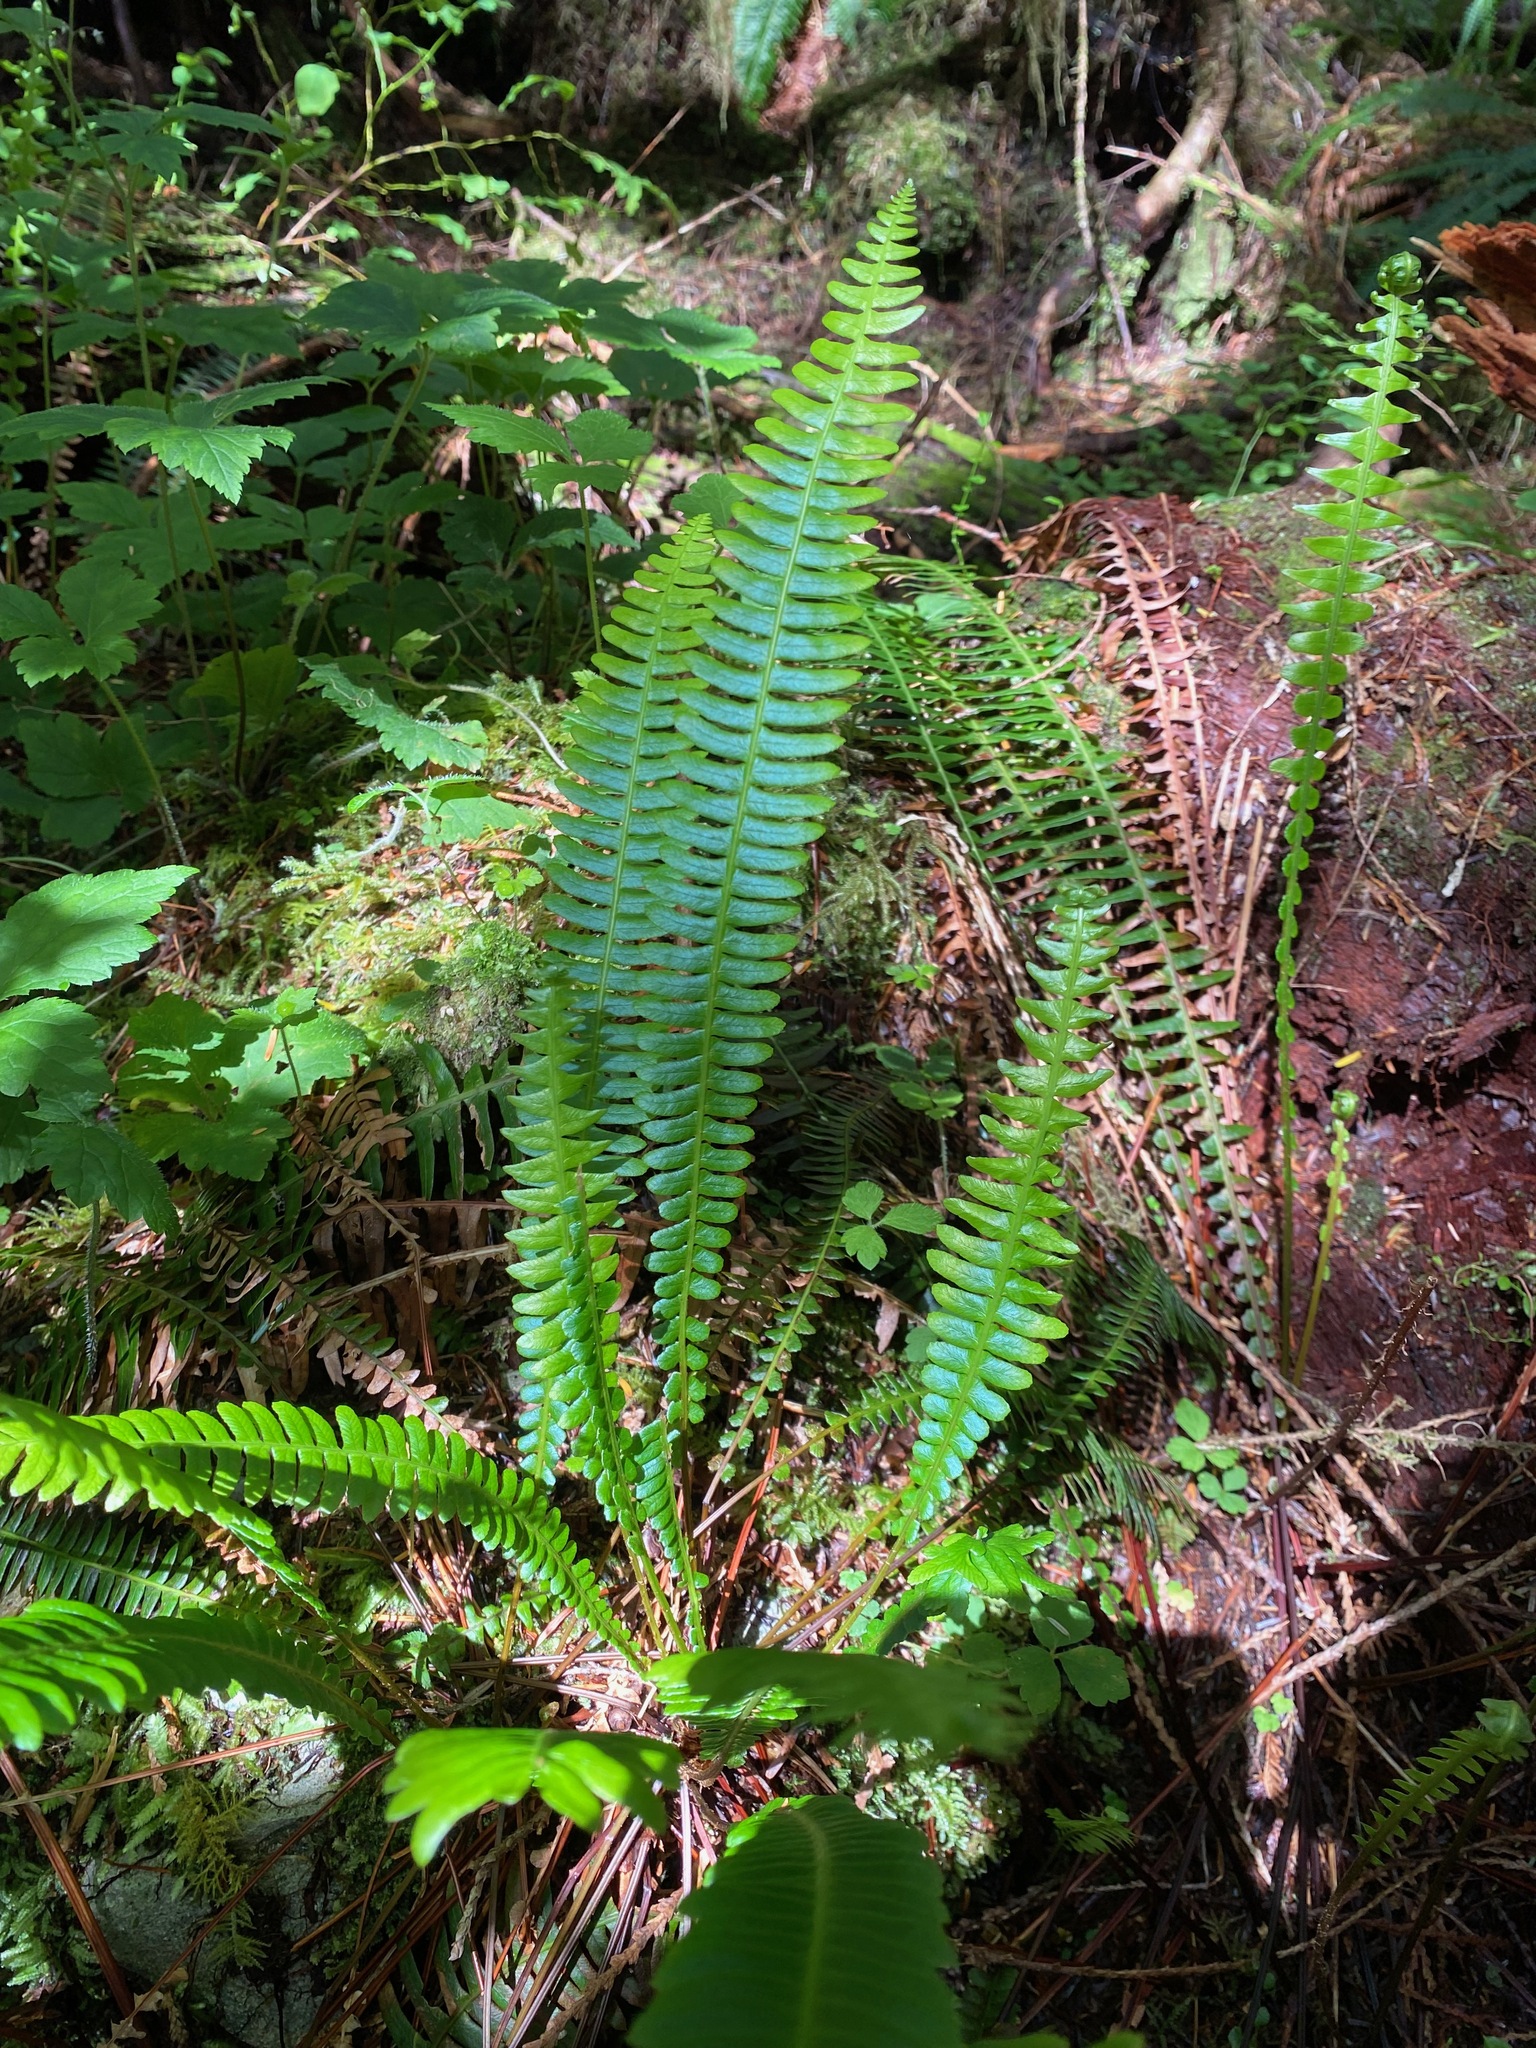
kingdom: Plantae
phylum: Tracheophyta
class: Polypodiopsida
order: Polypodiales
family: Blechnaceae
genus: Struthiopteris
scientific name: Struthiopteris spicant
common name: Deer fern
